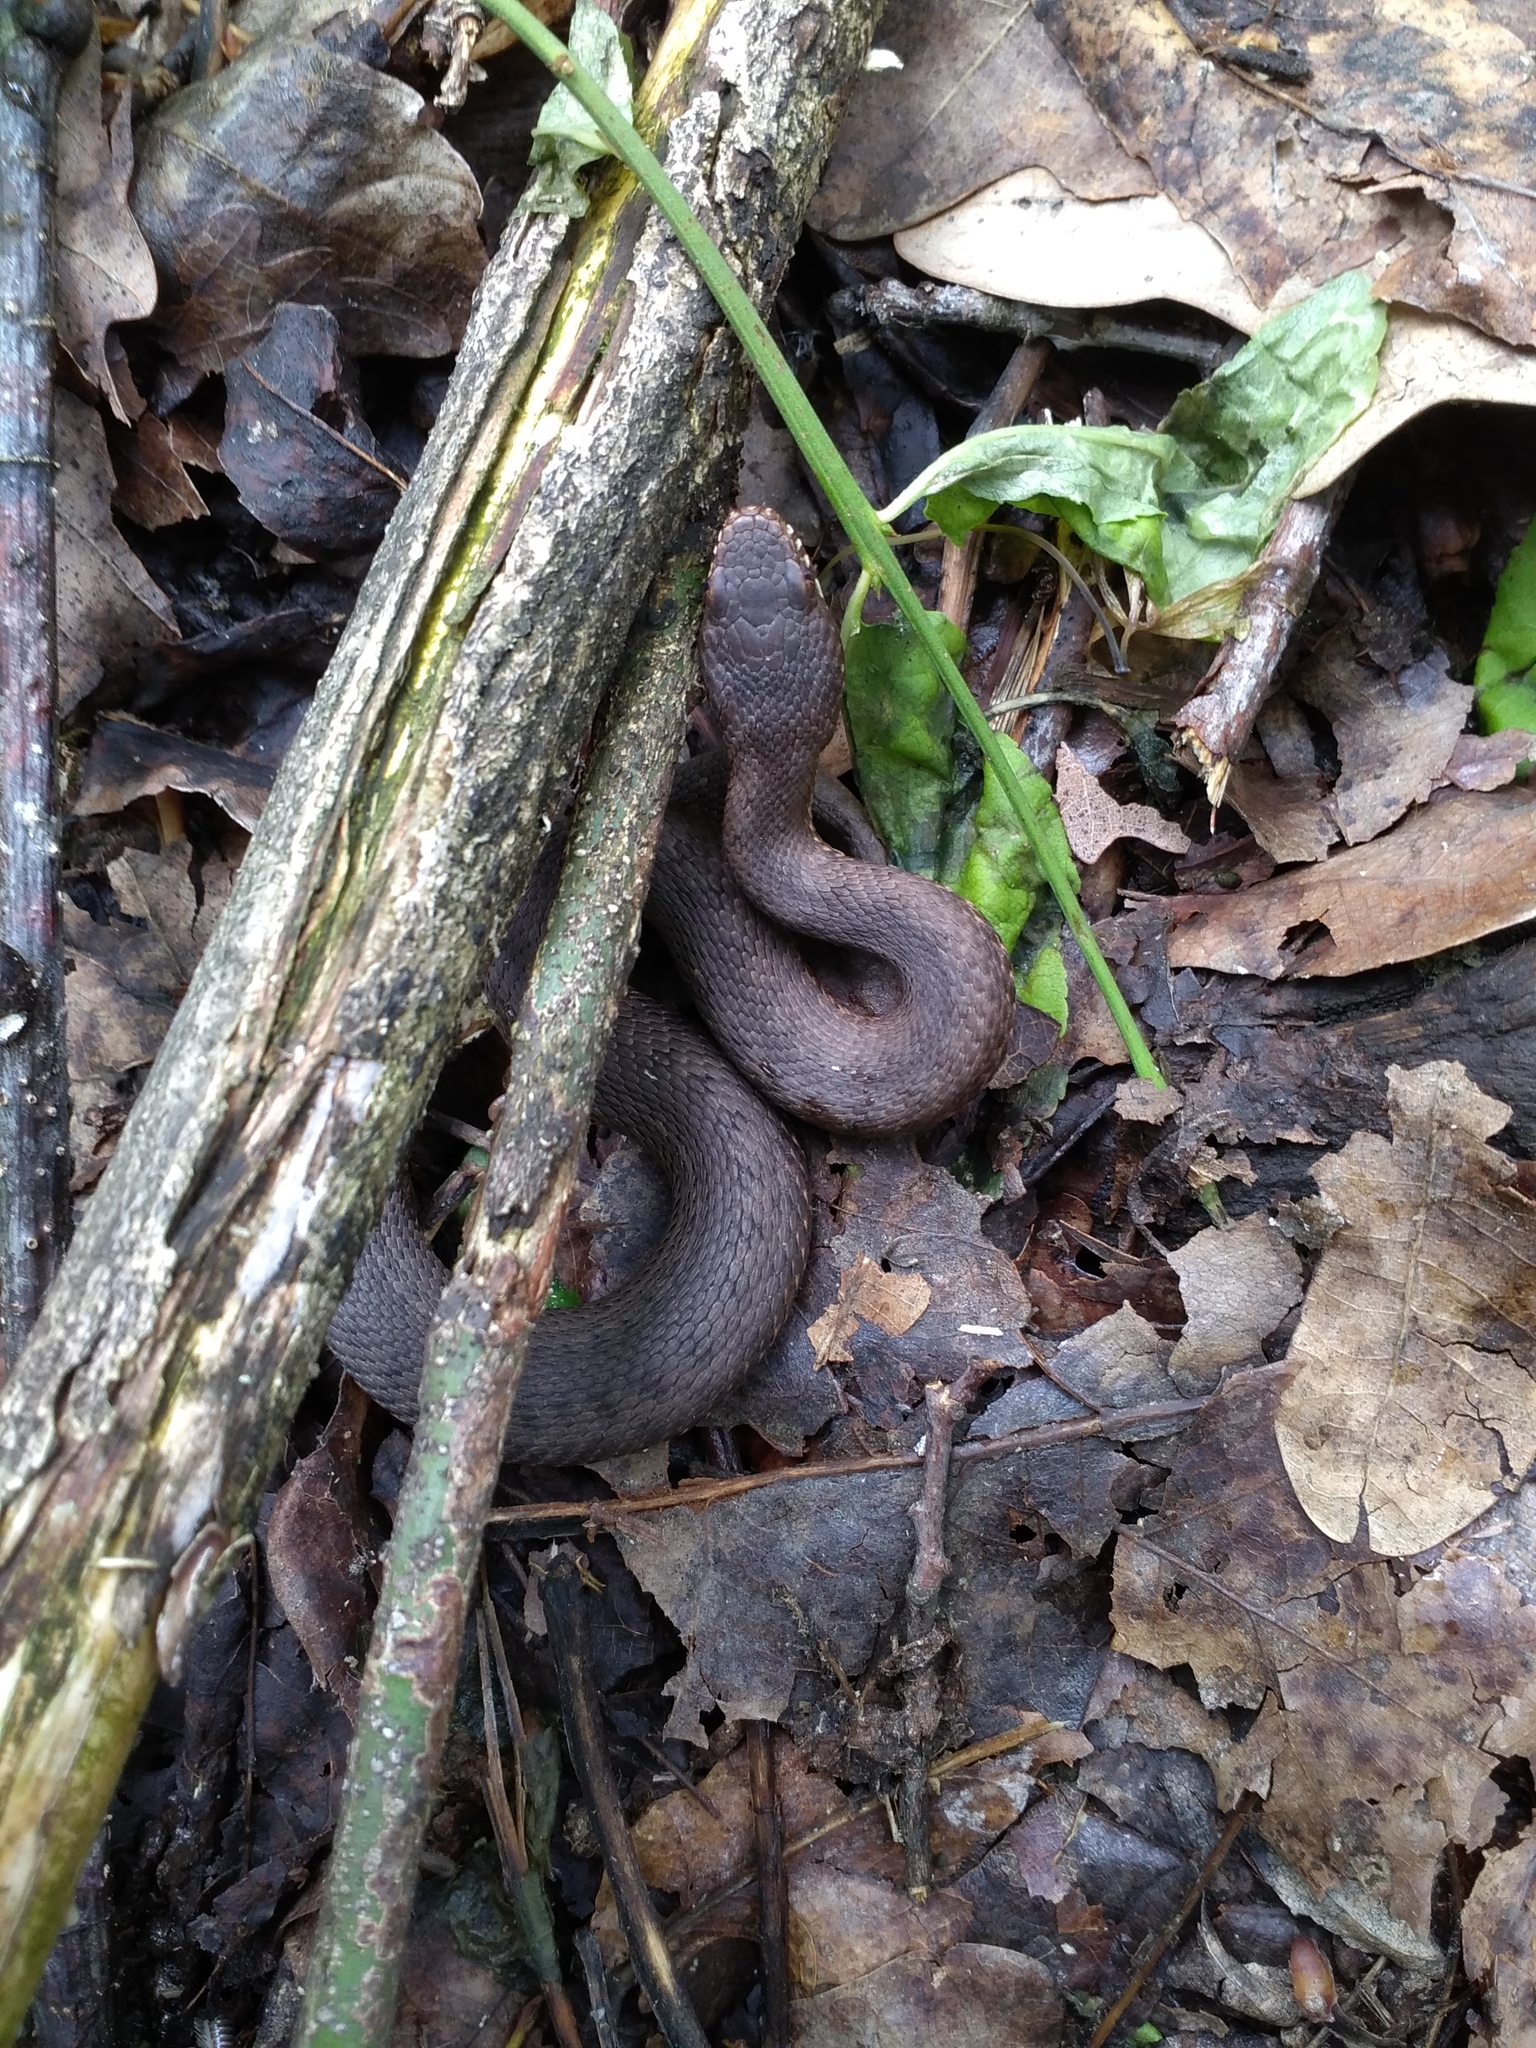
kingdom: Animalia
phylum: Chordata
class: Squamata
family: Viperidae
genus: Vipera
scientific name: Vipera berus
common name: Adder
